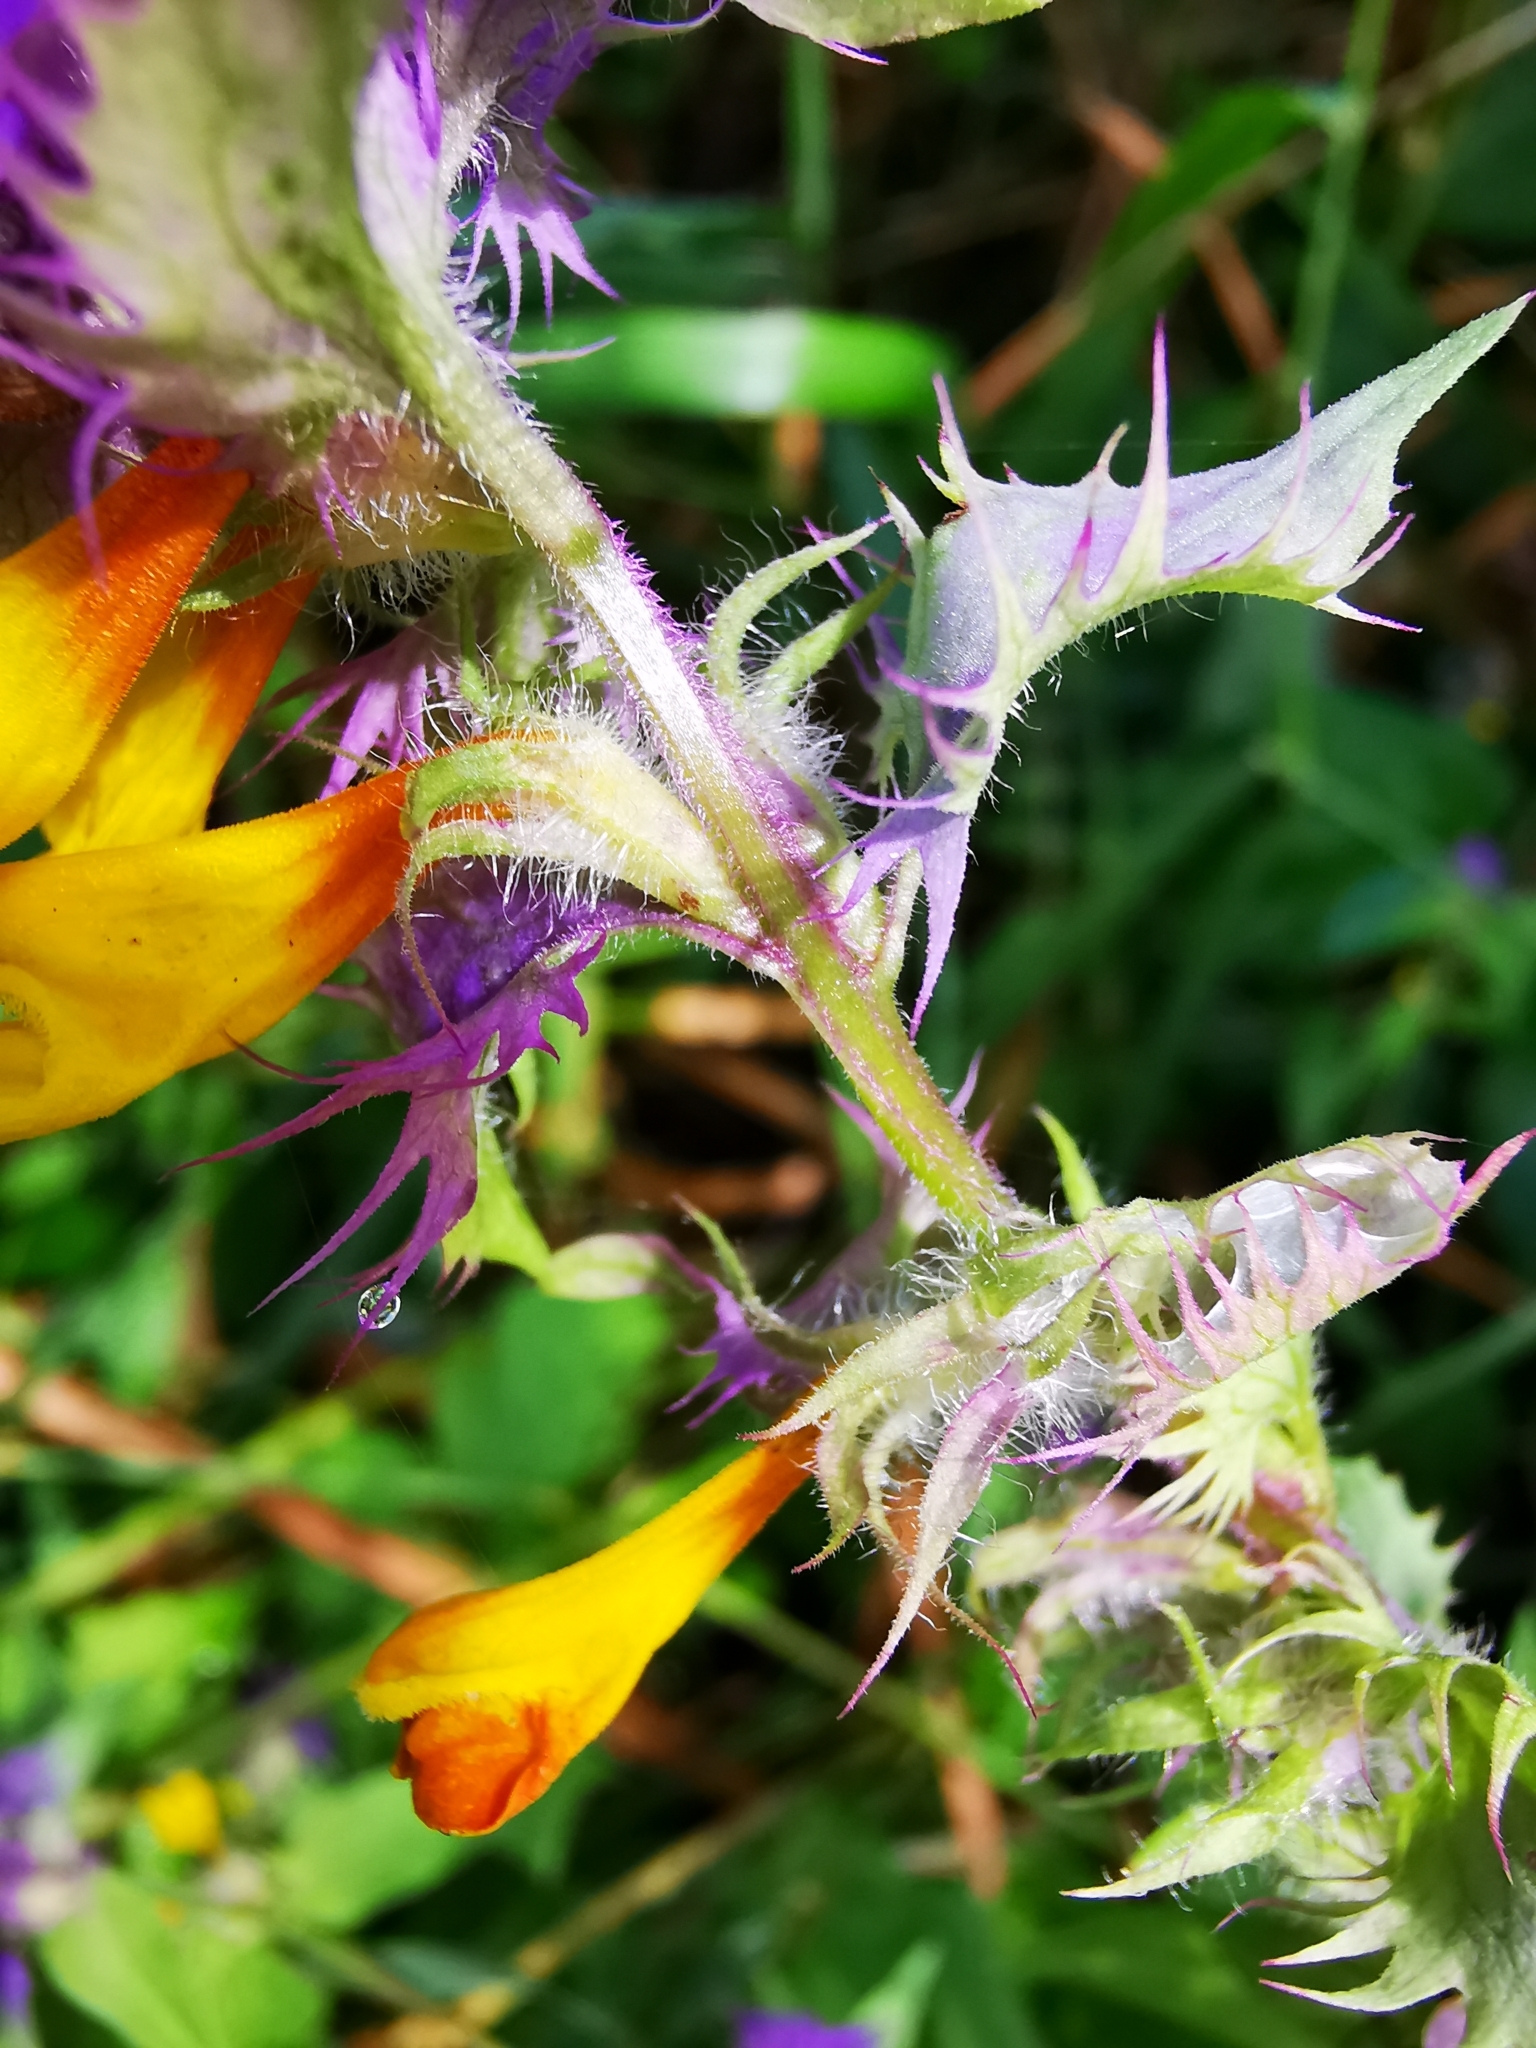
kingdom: Plantae
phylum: Tracheophyta
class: Magnoliopsida
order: Lamiales
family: Orobanchaceae
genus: Melampyrum
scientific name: Melampyrum nemorosum
